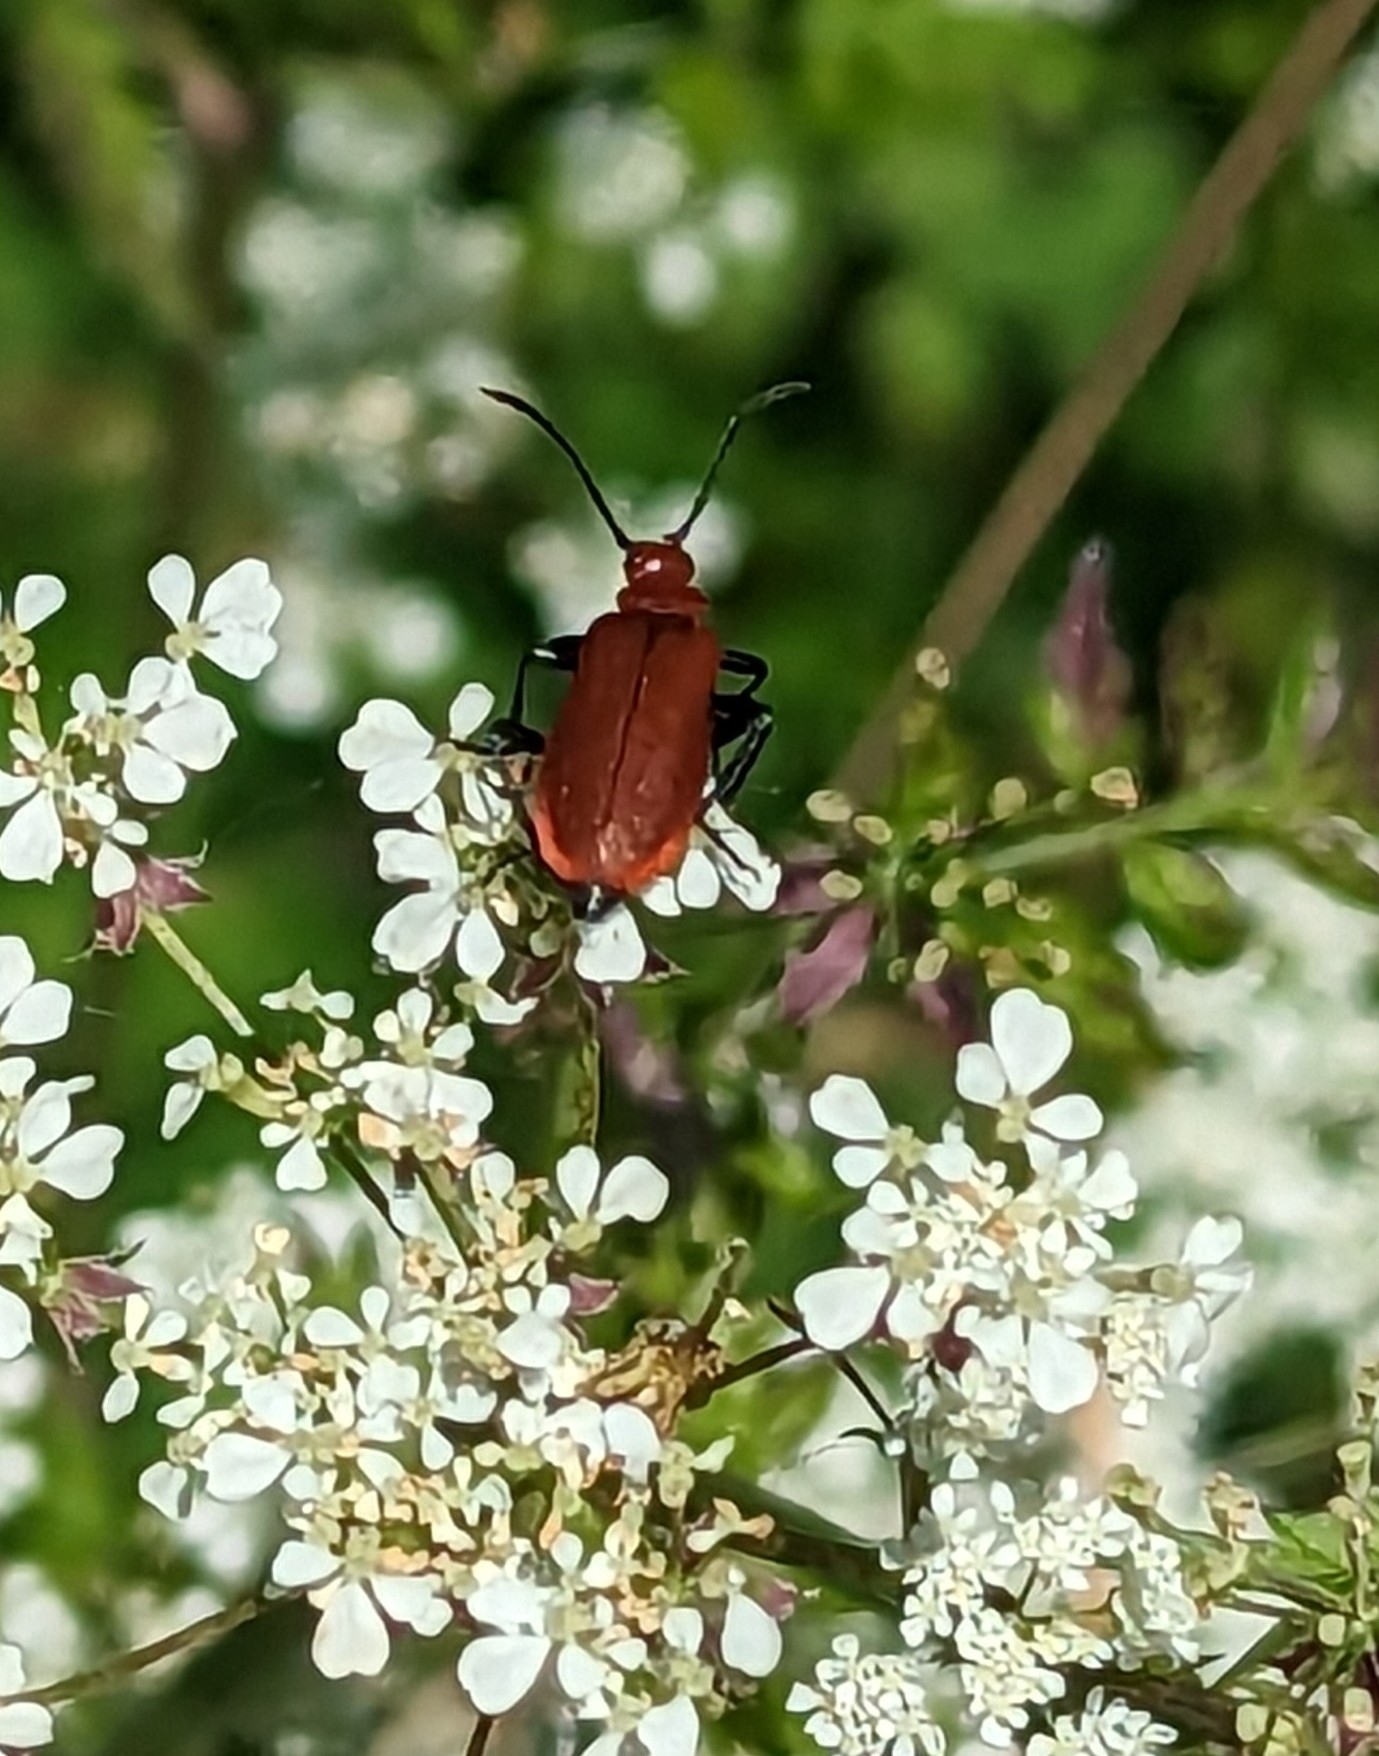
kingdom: Animalia
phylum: Arthropoda
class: Insecta
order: Coleoptera
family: Pyrochroidae
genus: Pyrochroa
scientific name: Pyrochroa serraticornis
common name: Red-headed cardinal beetle
